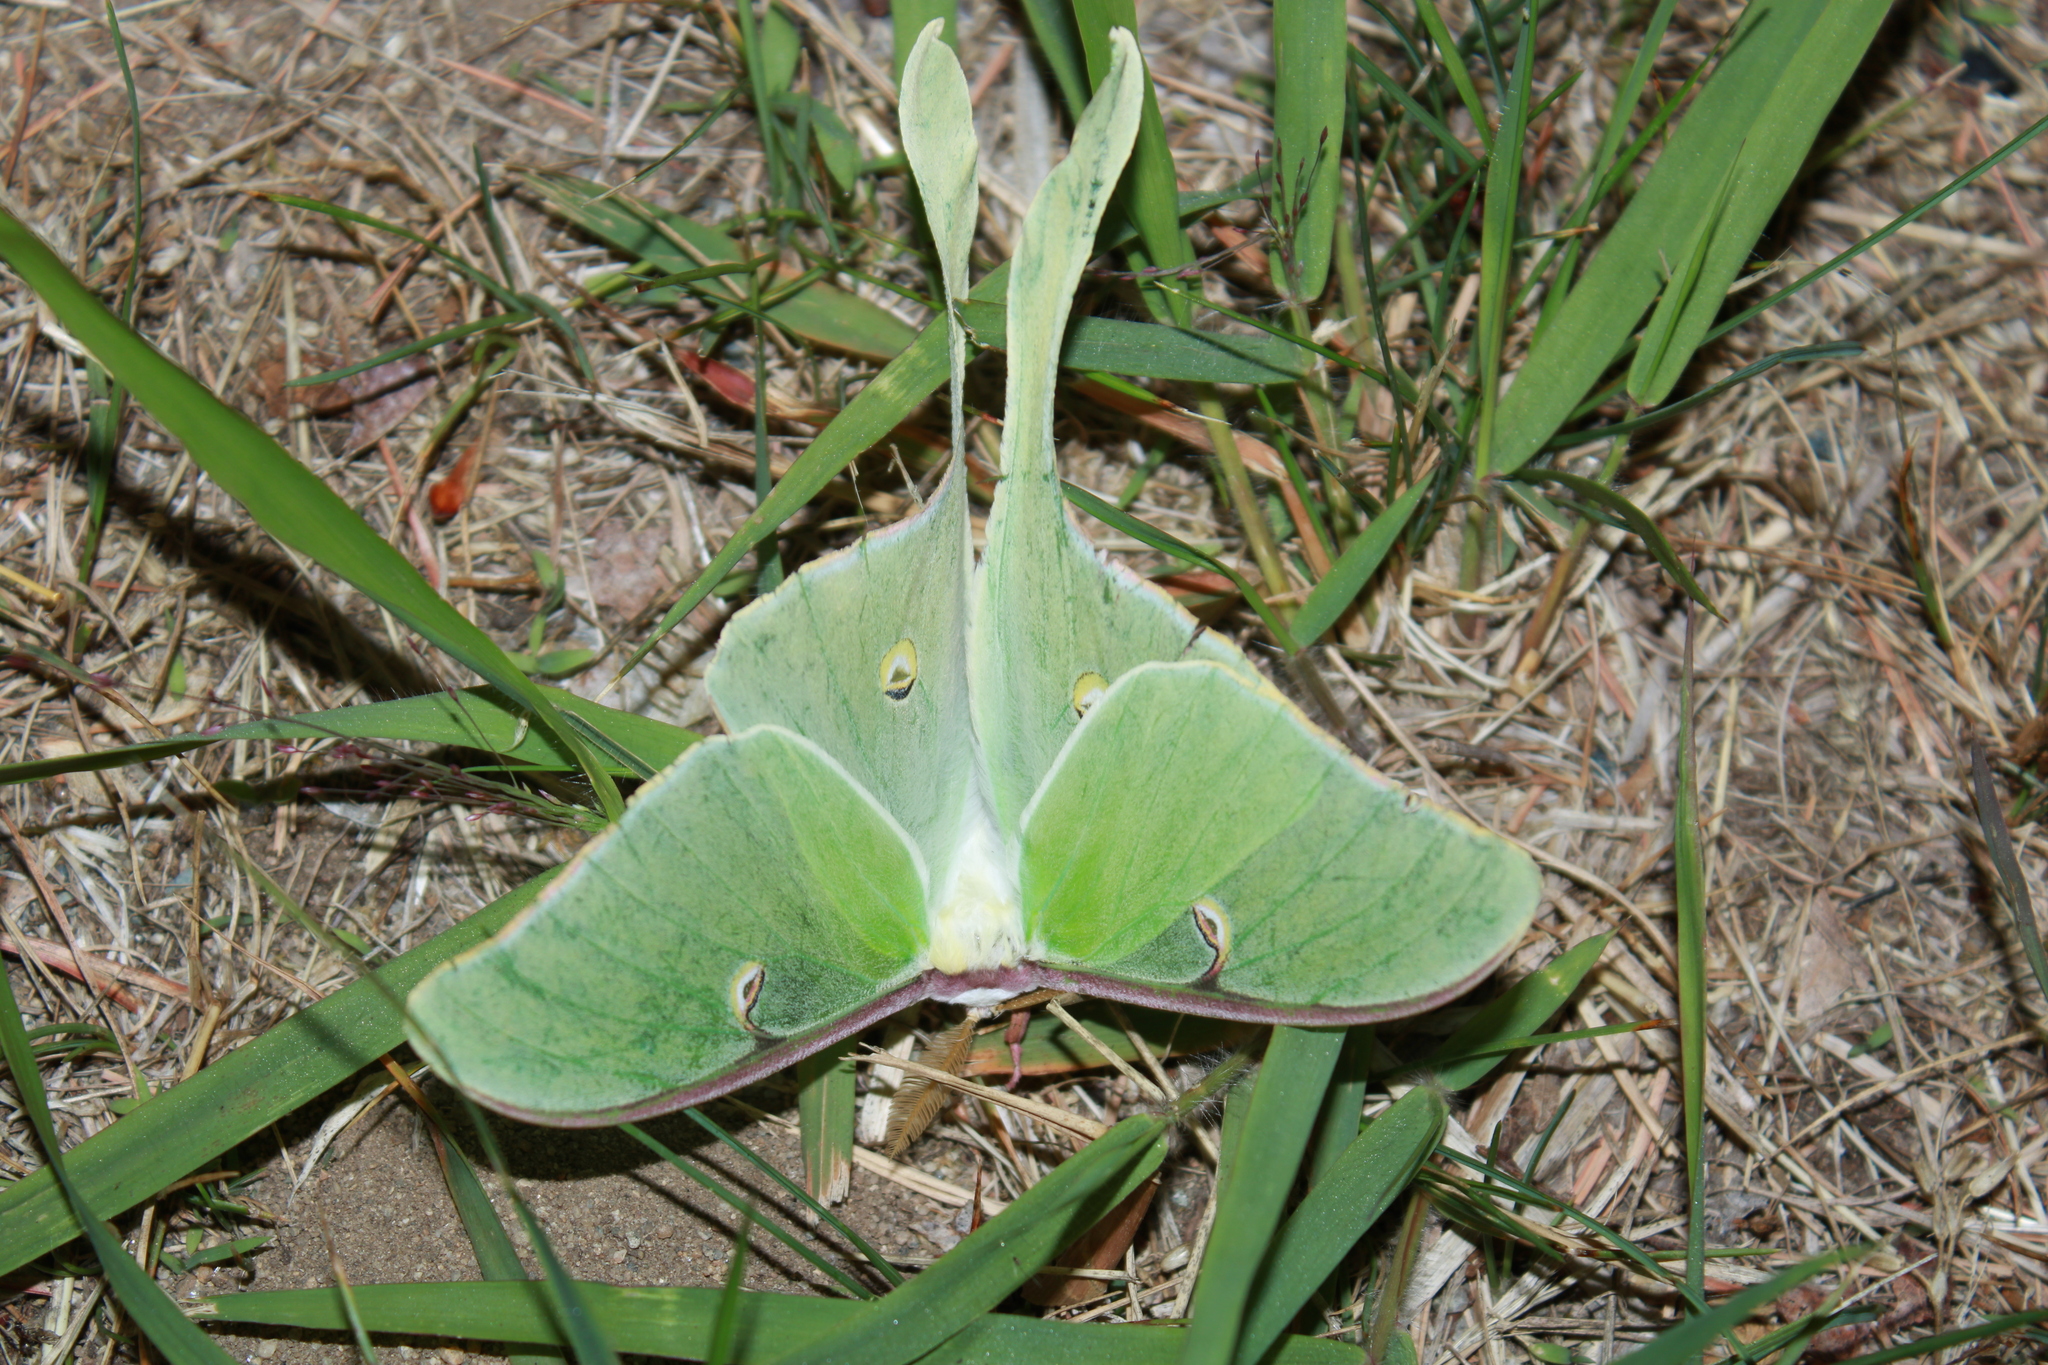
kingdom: Animalia
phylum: Arthropoda
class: Insecta
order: Lepidoptera
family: Saturniidae
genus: Actias
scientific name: Actias luna
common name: Luna moth
